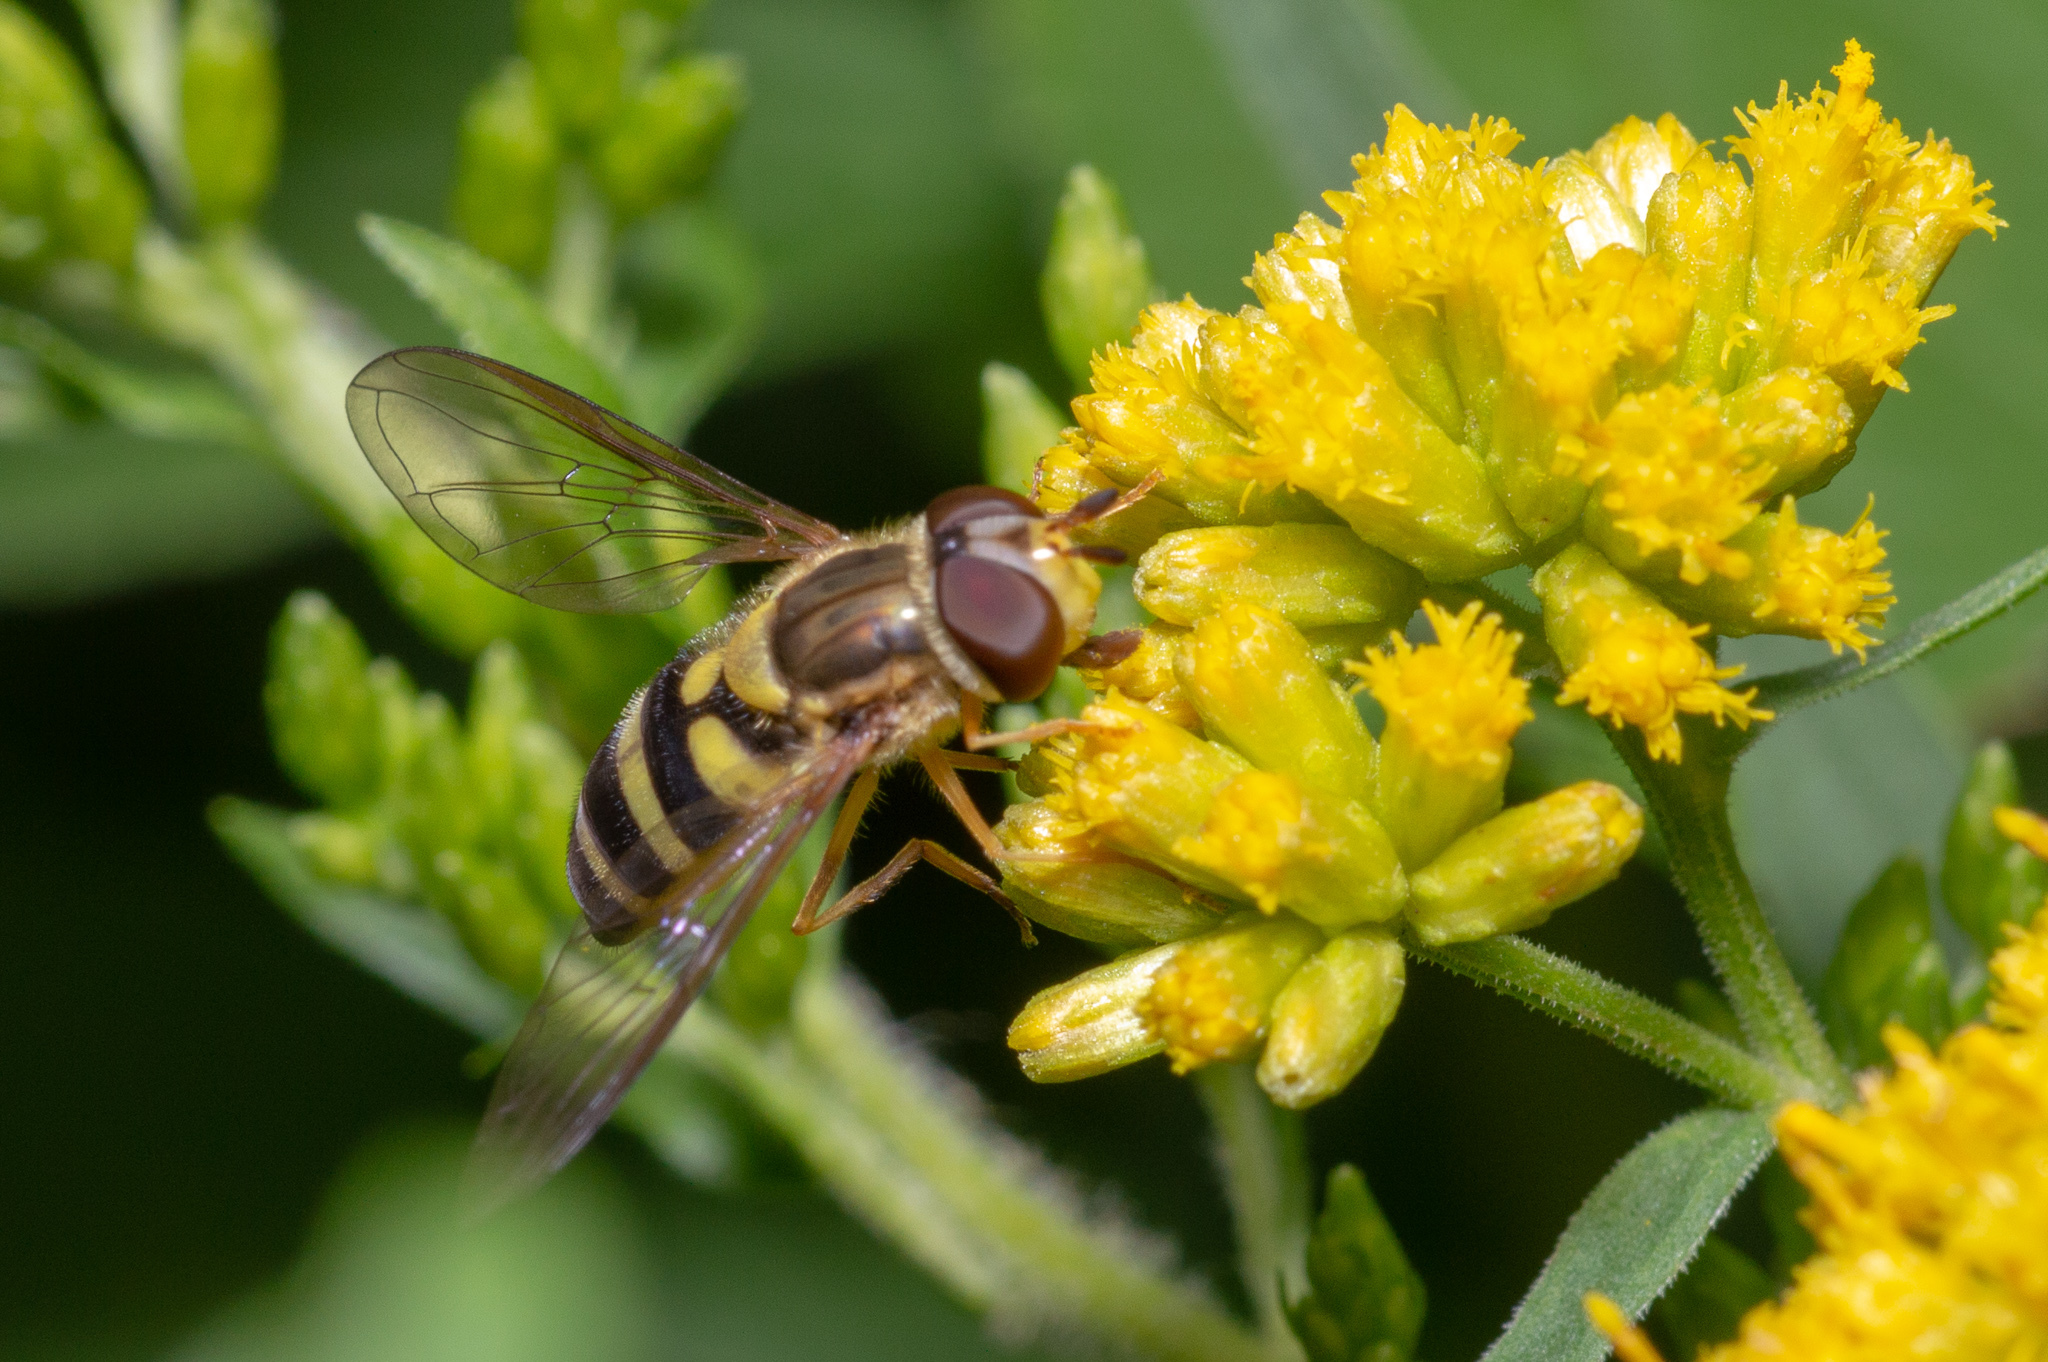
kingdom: Animalia
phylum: Arthropoda
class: Insecta
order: Diptera
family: Syrphidae
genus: Syrphus
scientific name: Syrphus knabi
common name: Eastern flower fly
